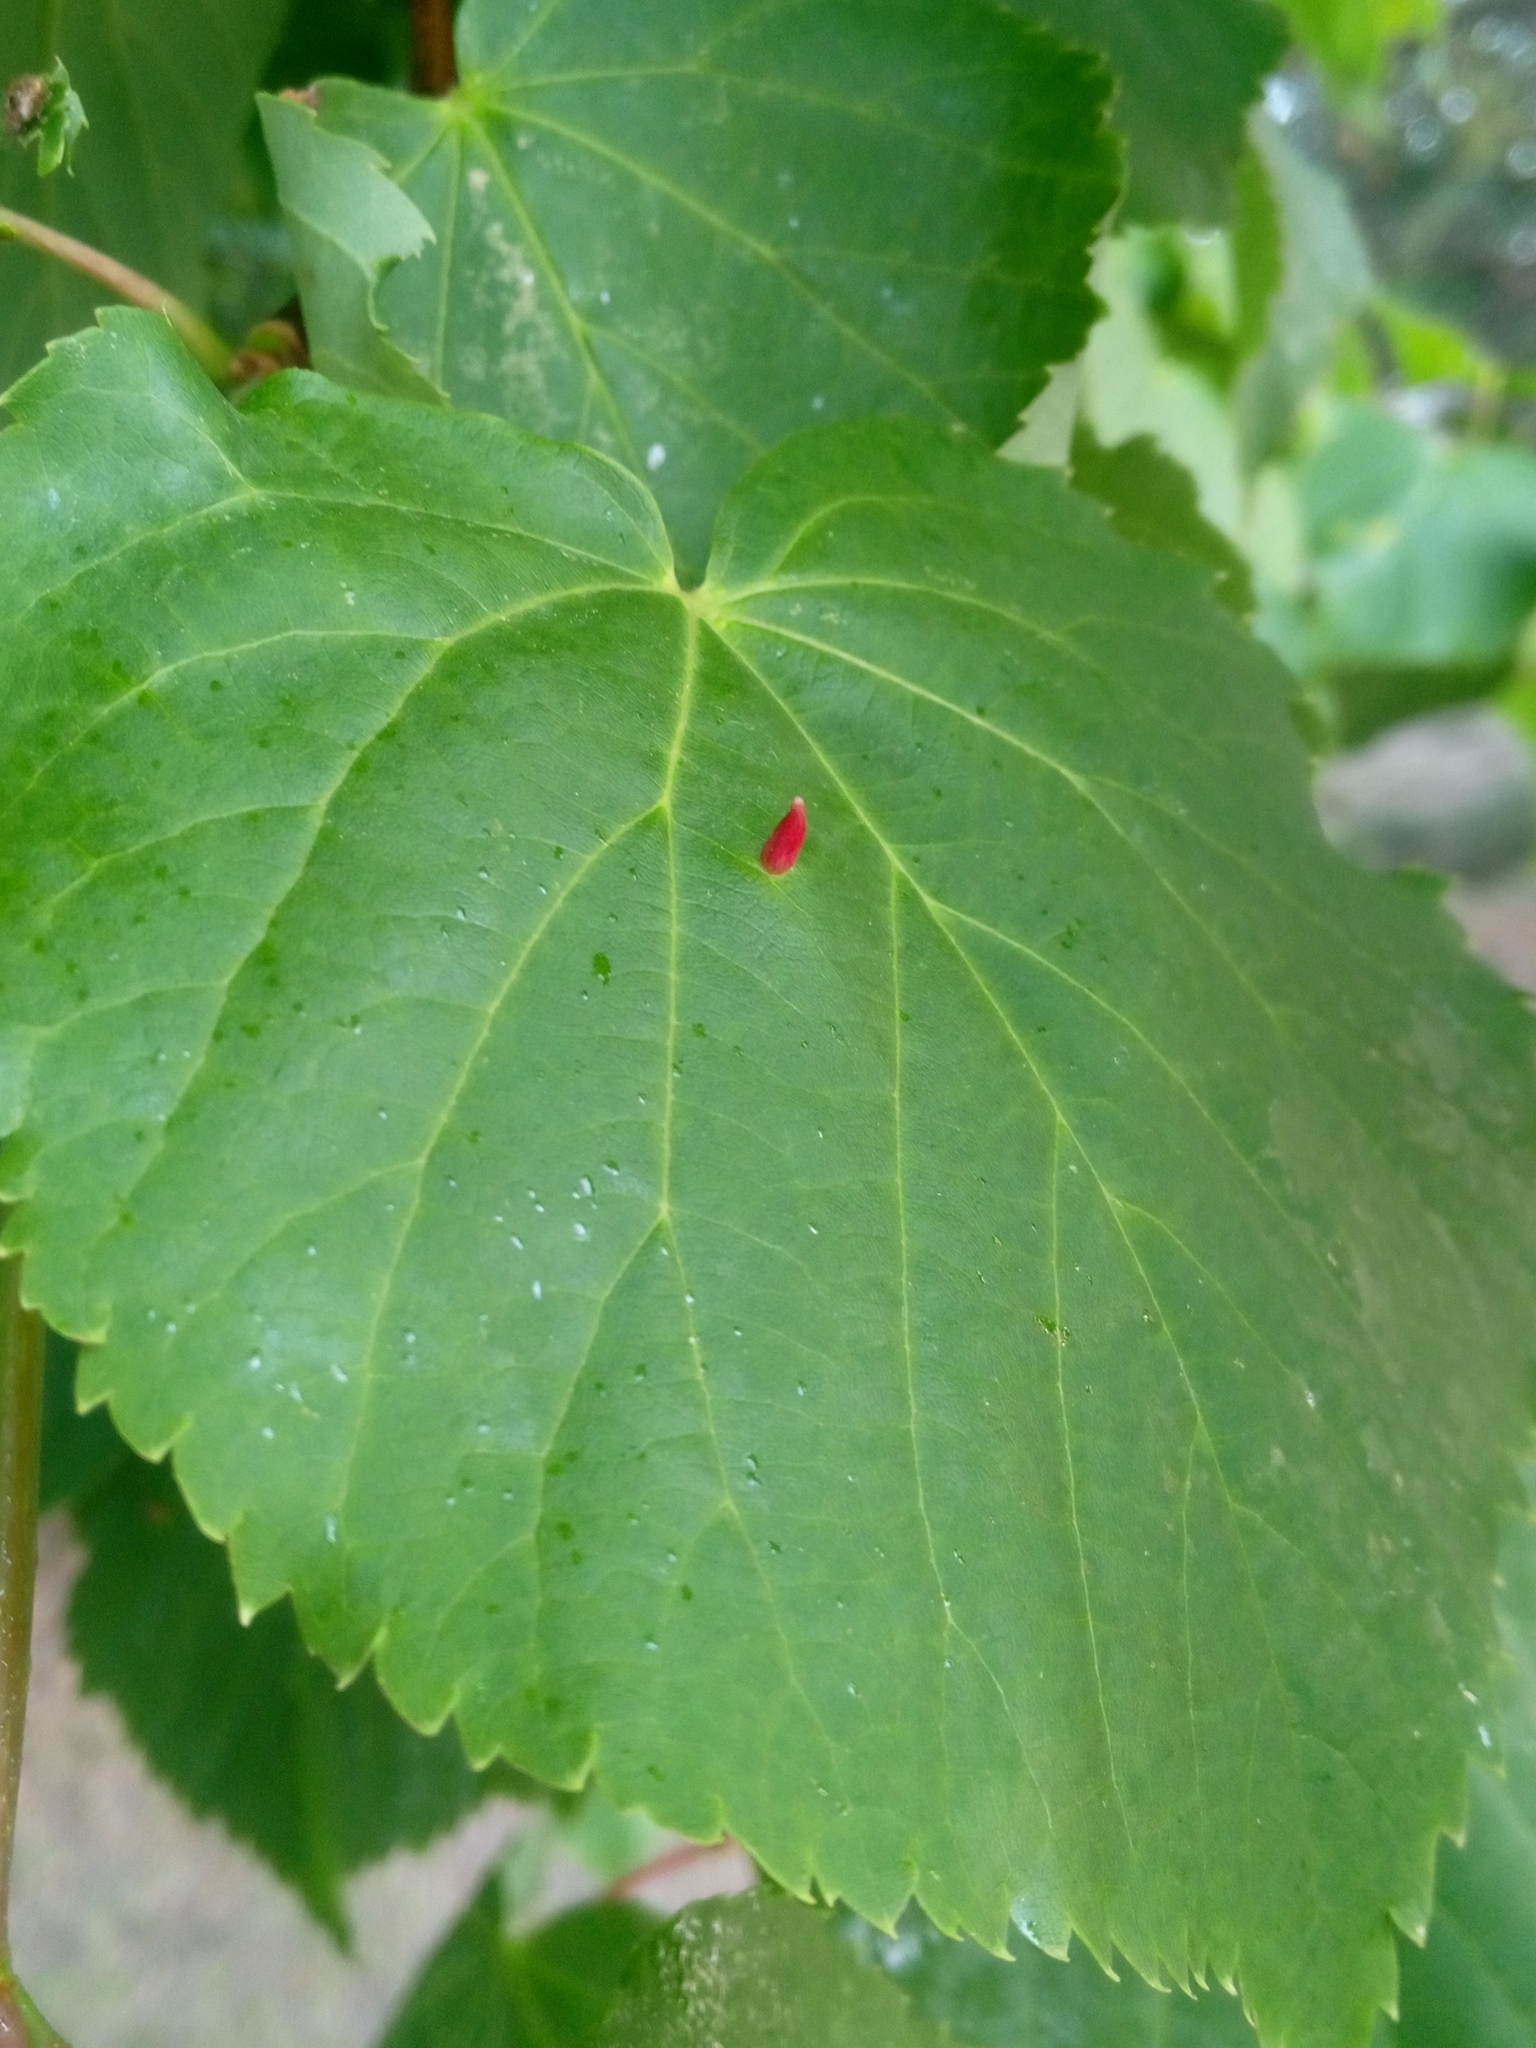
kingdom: Animalia
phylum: Arthropoda
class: Arachnida
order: Trombidiformes
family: Eriophyidae
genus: Eriophyes
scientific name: Eriophyes tiliae
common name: Red nail gall mite
